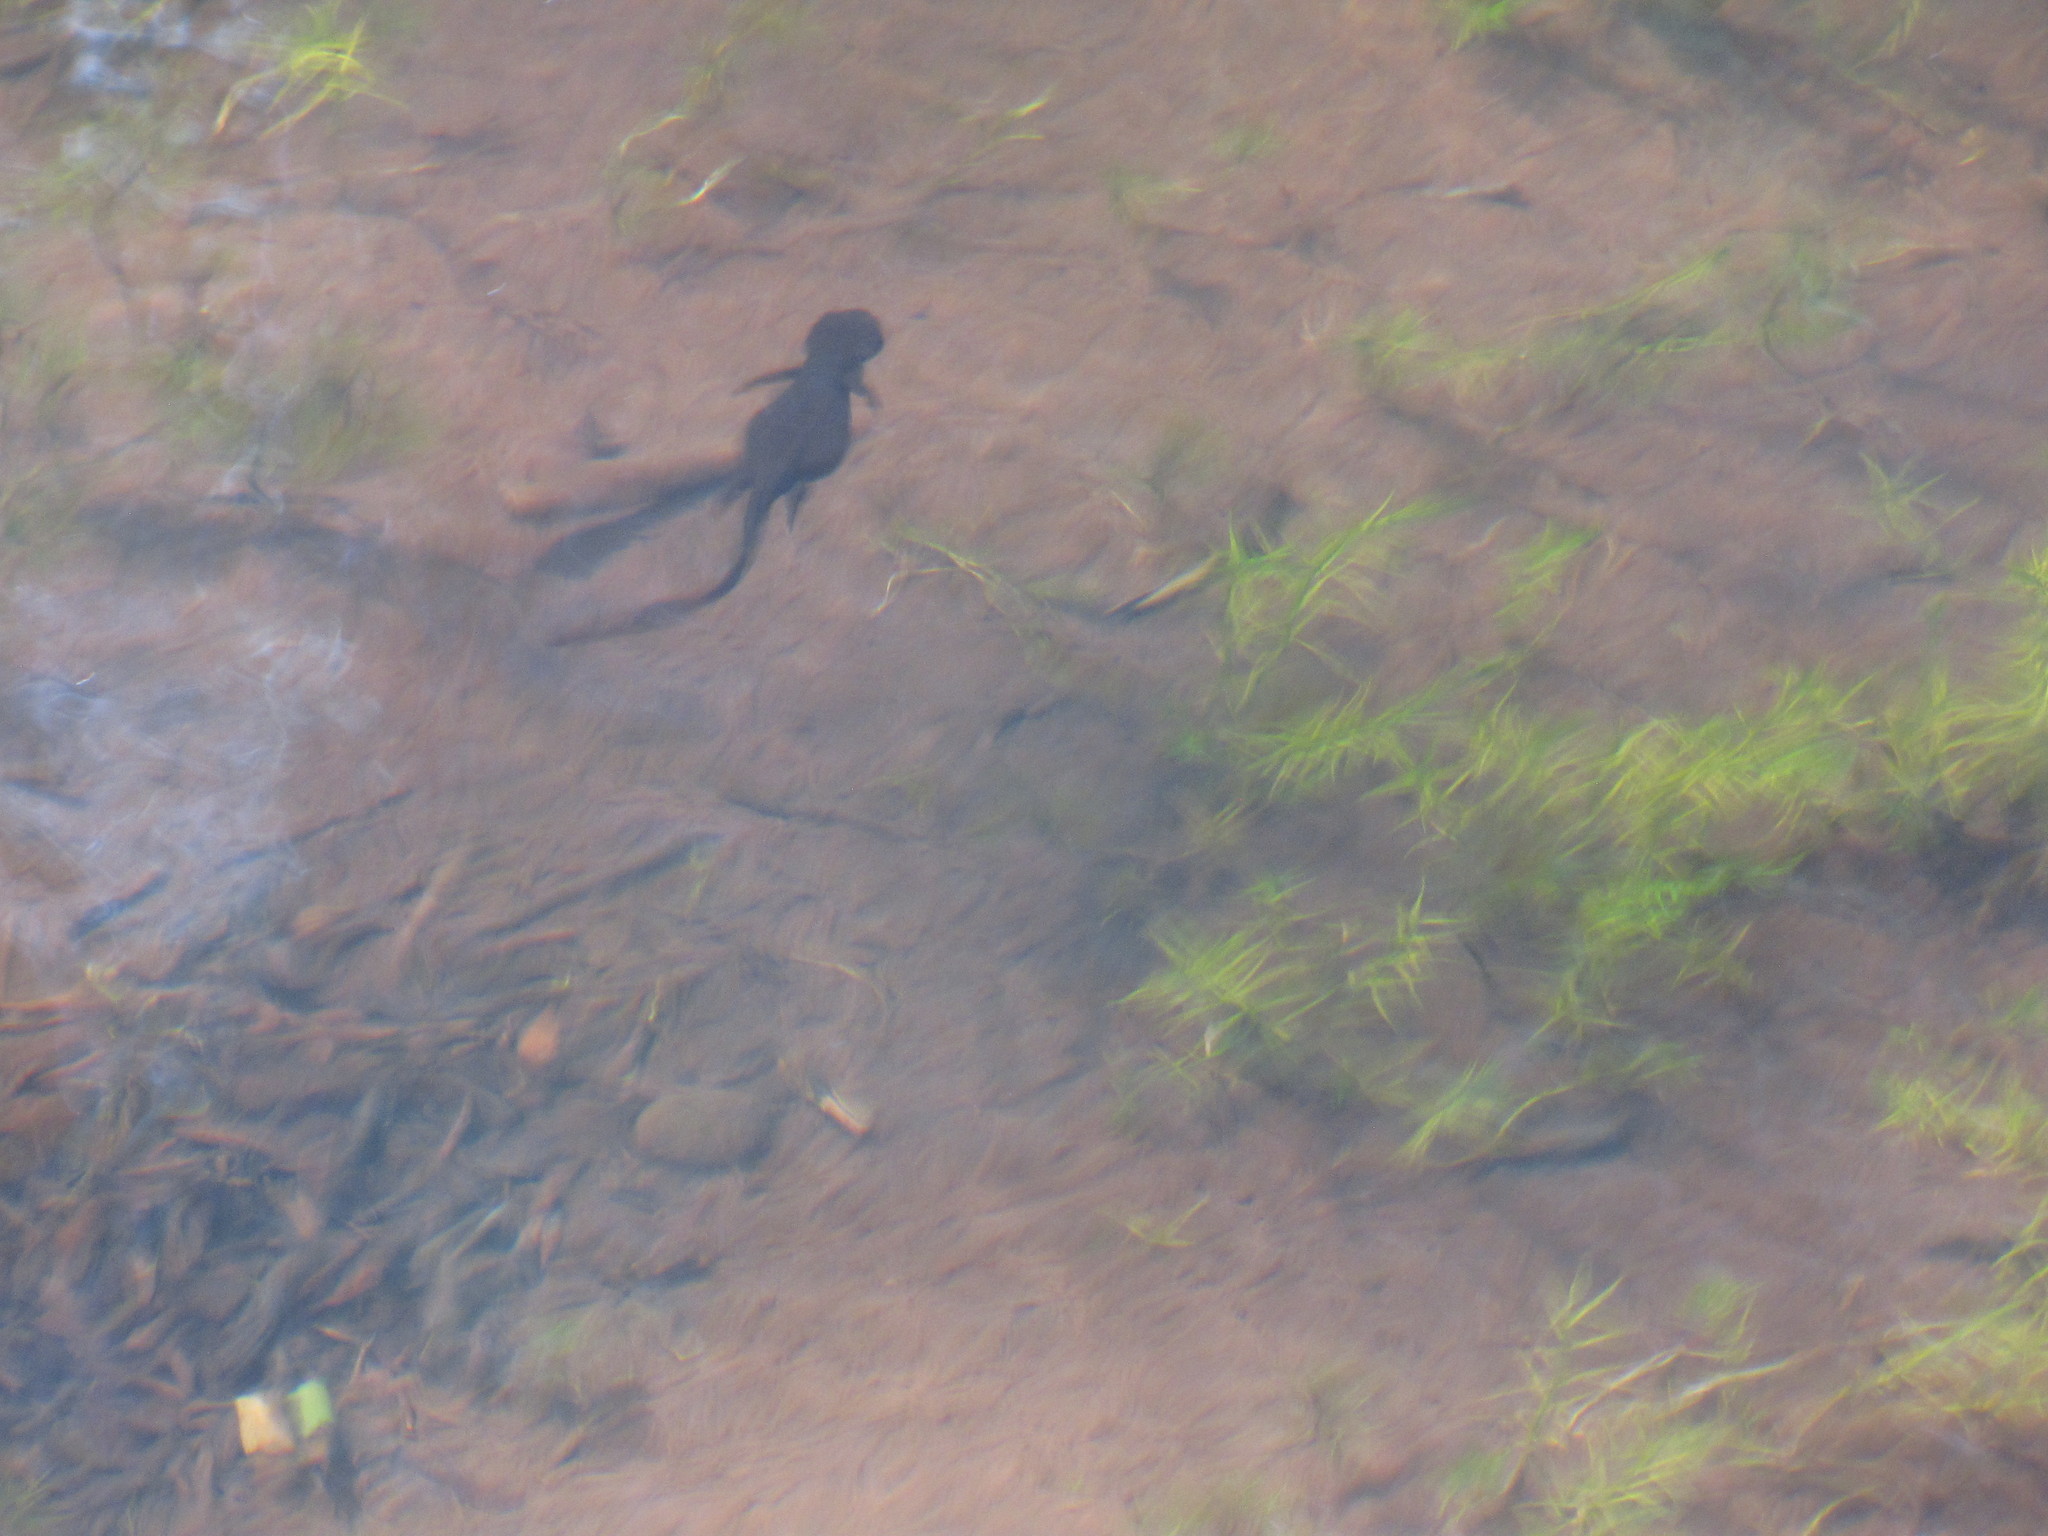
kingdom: Animalia
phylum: Chordata
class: Amphibia
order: Caudata
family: Salamandridae
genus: Taricha
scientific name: Taricha granulosa
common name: Roughskin newt
